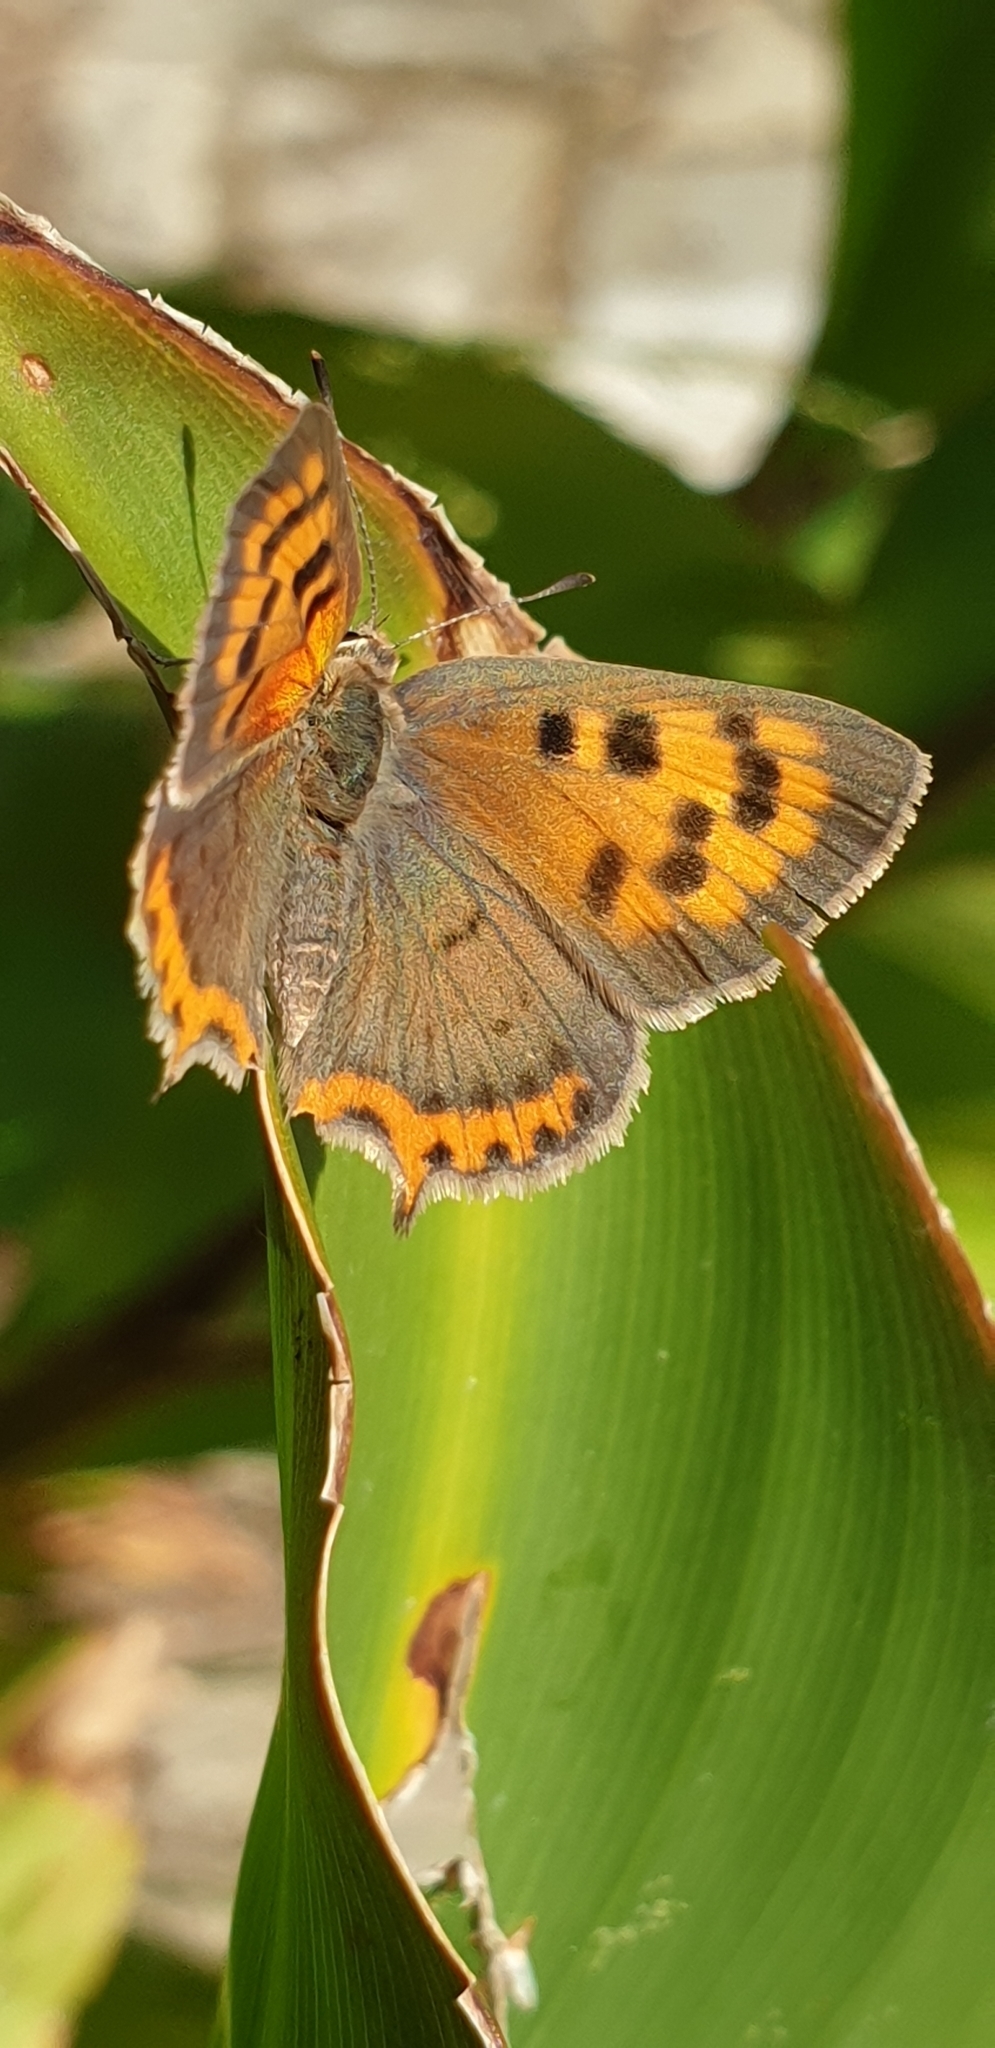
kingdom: Animalia
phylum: Arthropoda
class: Insecta
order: Lepidoptera
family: Lycaenidae
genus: Lycaena
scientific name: Lycaena phlaeas
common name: Small copper
